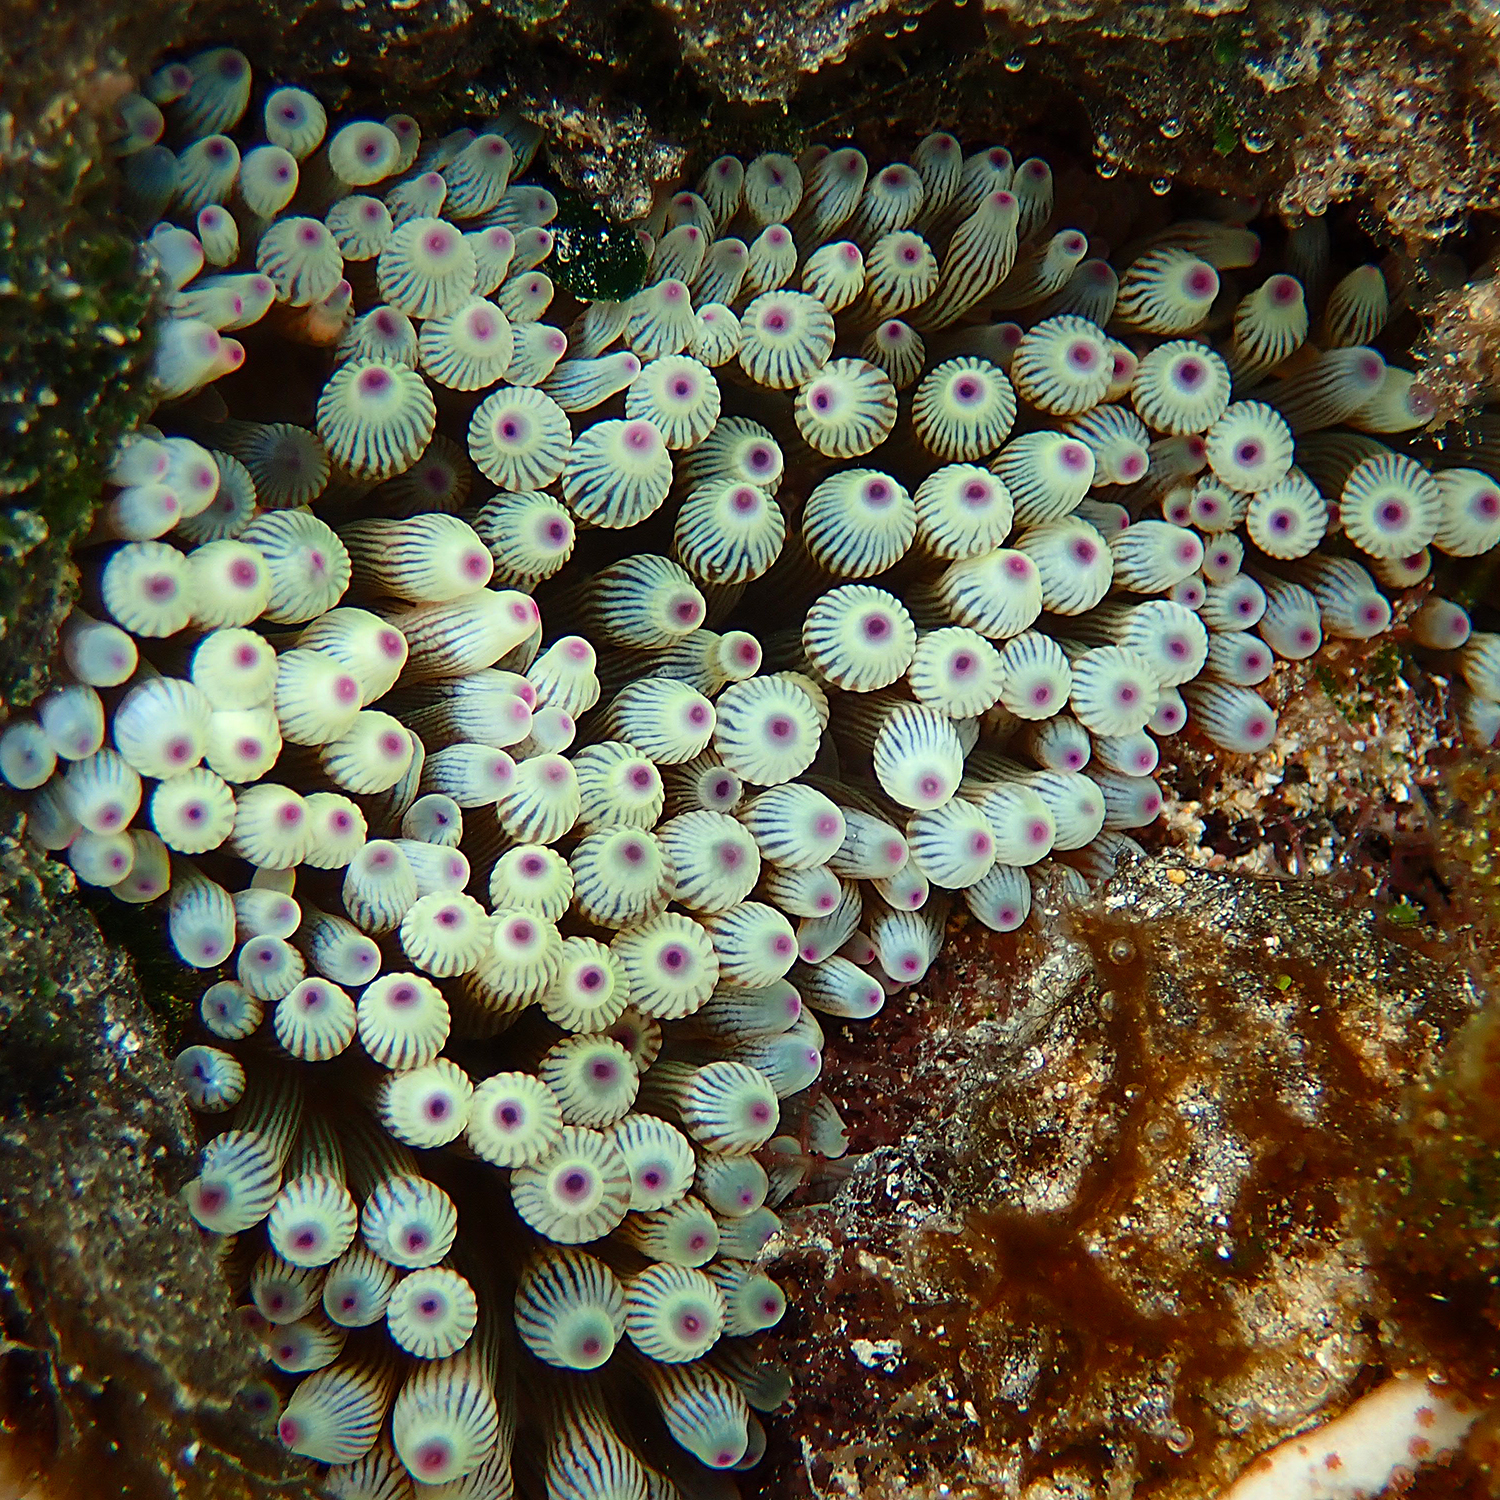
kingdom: Animalia
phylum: Cnidaria
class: Anthozoa
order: Actiniaria
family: Actiniidae
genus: Entacmaea
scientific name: Entacmaea quadricolor
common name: Bulb tentacle sea anemone
